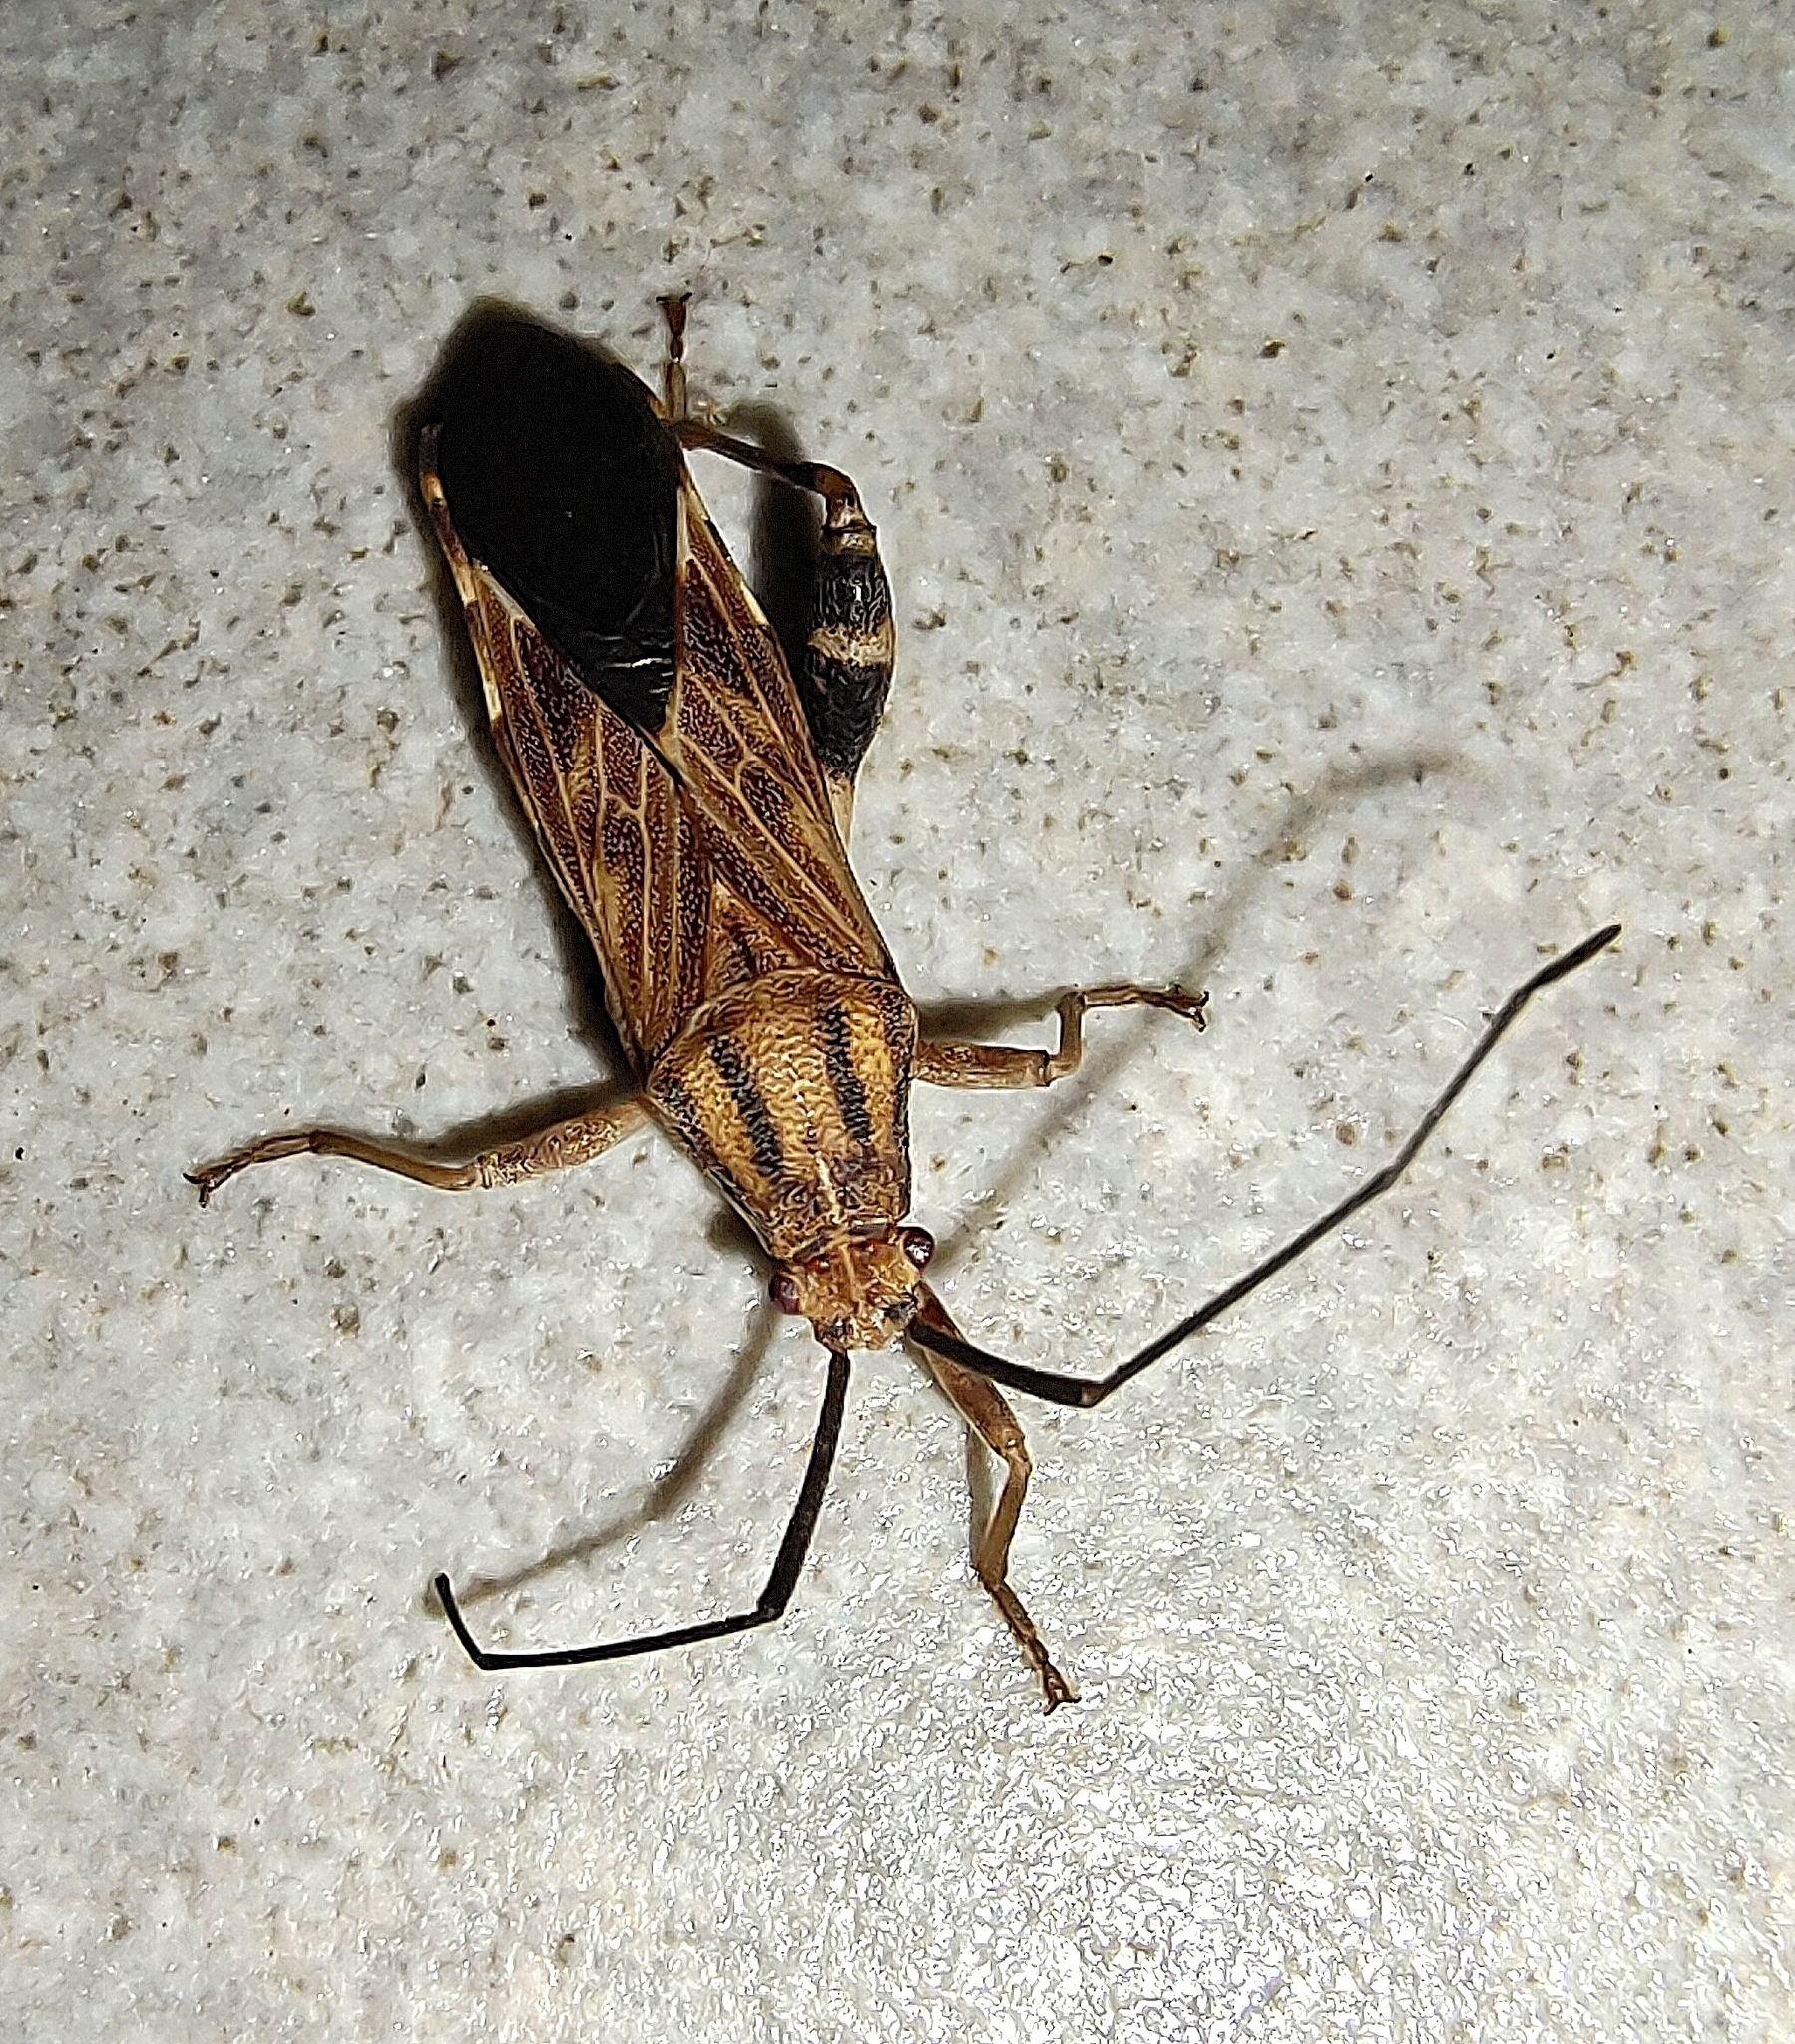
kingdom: Animalia
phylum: Arthropoda
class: Insecta
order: Hemiptera
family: Coreidae
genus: Physomerus
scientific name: Physomerus parvulus
